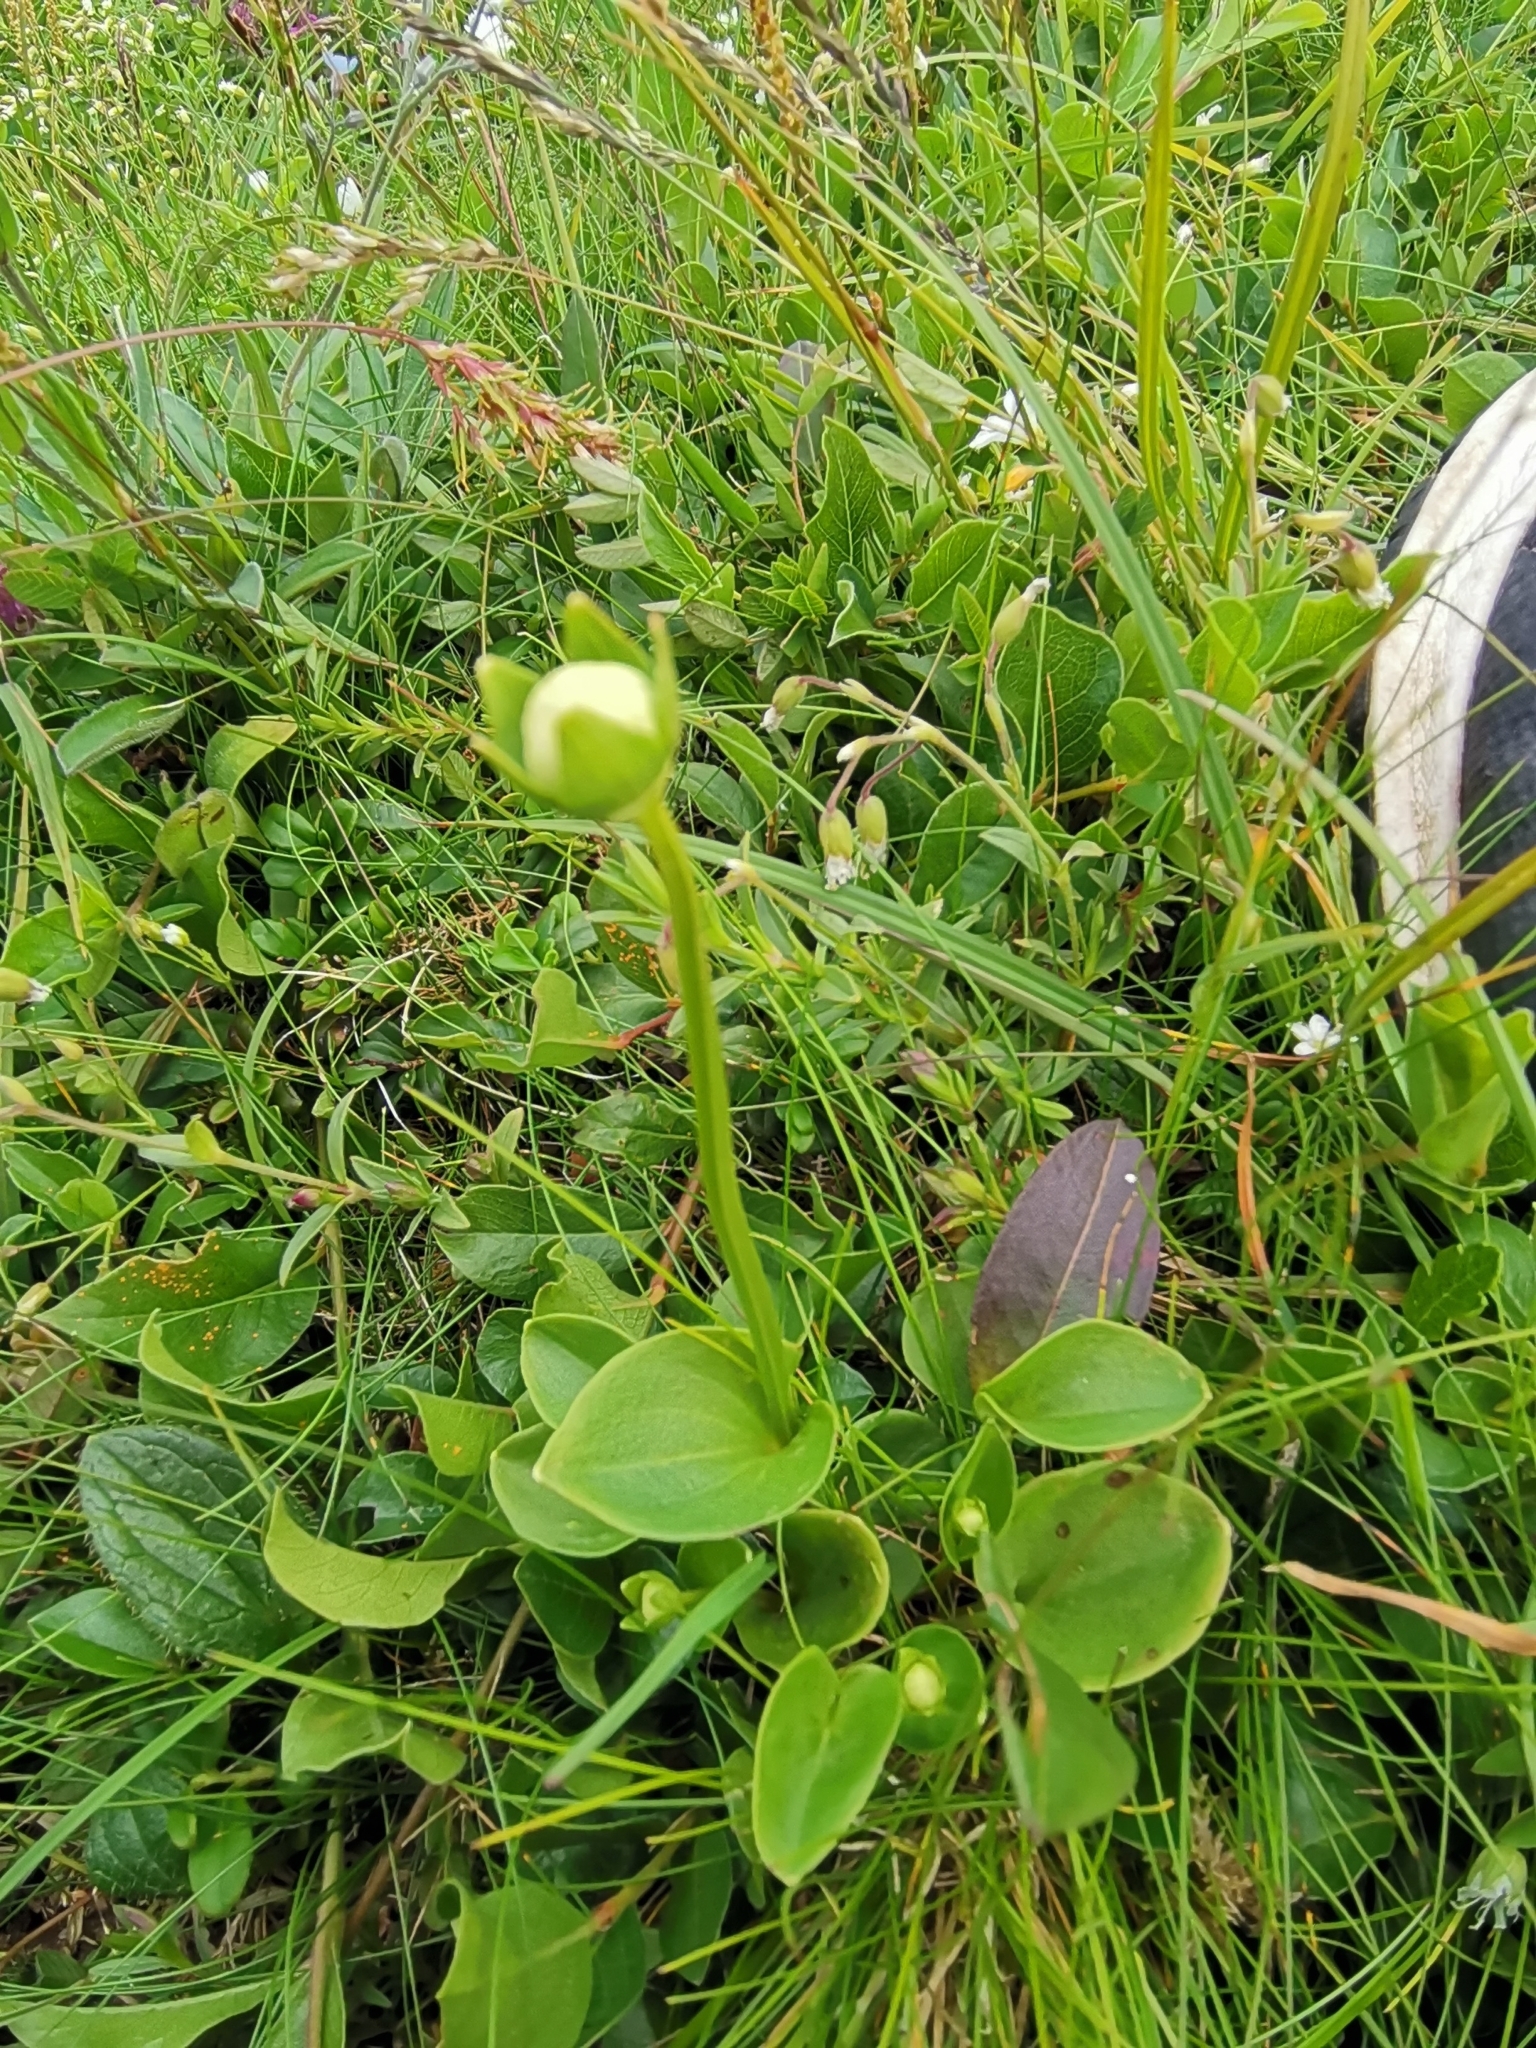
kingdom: Plantae
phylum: Tracheophyta
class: Magnoliopsida
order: Celastrales
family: Parnassiaceae
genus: Parnassia
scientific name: Parnassia palustris
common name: Grass-of-parnassus
